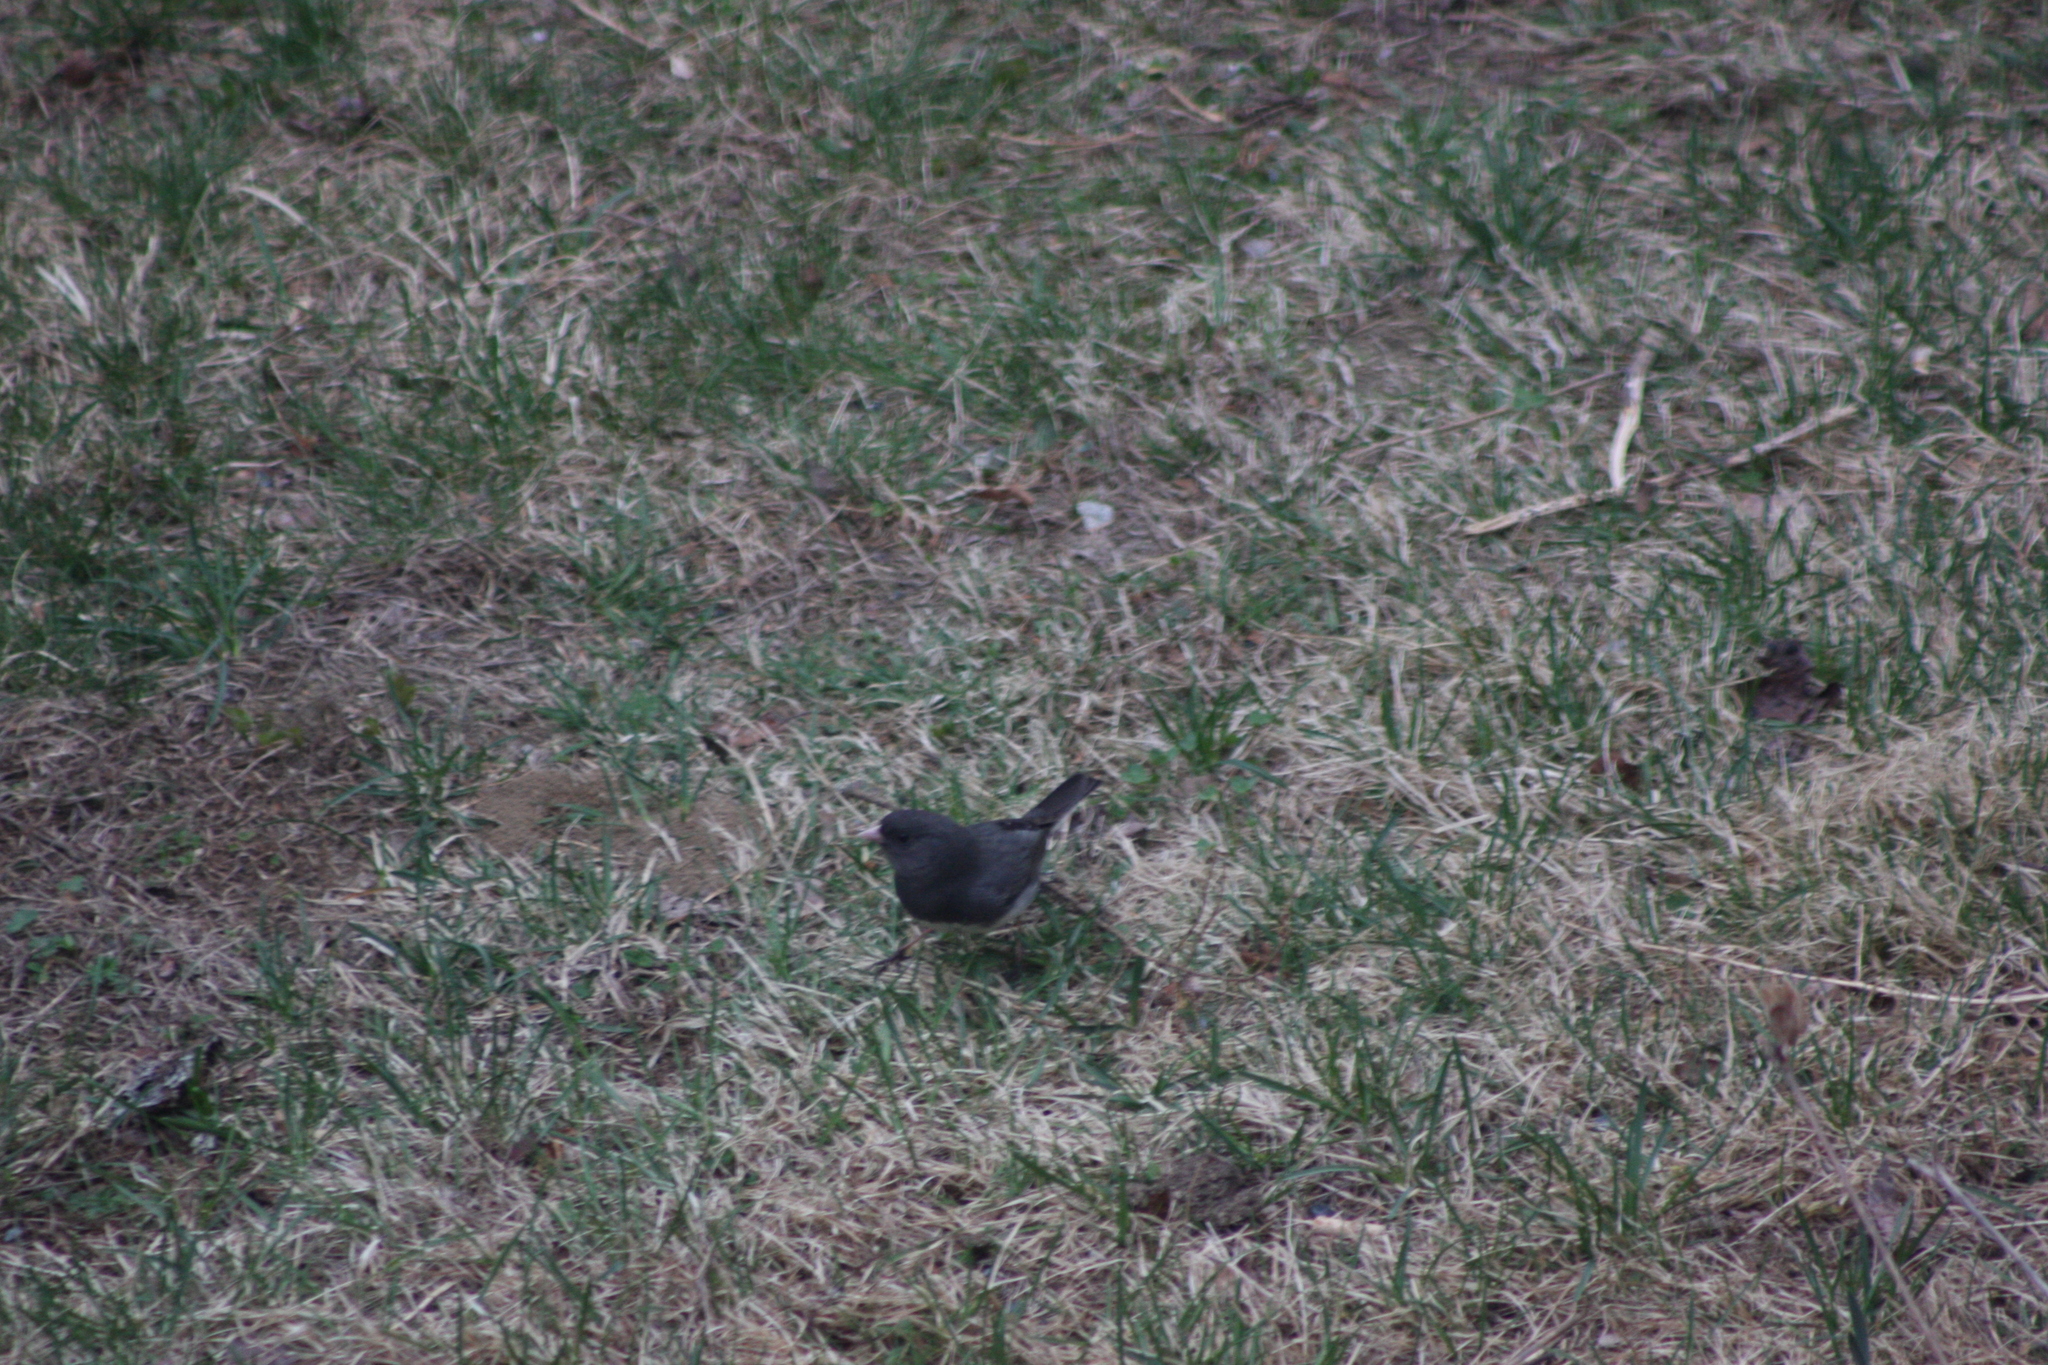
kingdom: Animalia
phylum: Chordata
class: Aves
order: Passeriformes
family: Passerellidae
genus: Junco
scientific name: Junco hyemalis
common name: Dark-eyed junco
